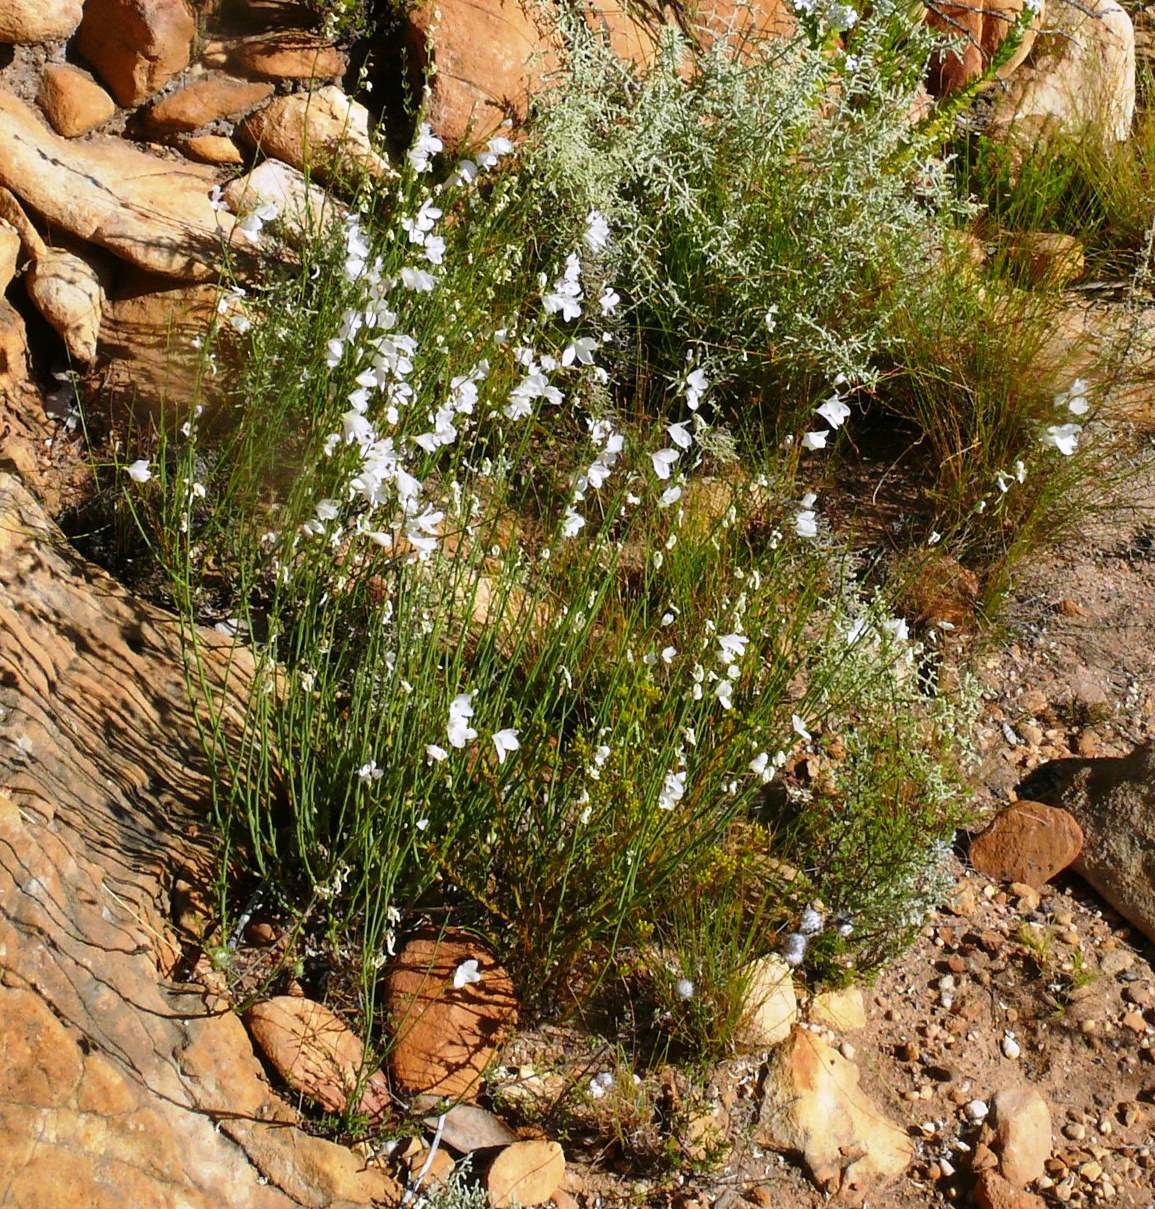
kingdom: Plantae
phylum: Tracheophyta
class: Magnoliopsida
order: Brassicales
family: Brassicaceae
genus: Heliophila
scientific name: Heliophila juncea
